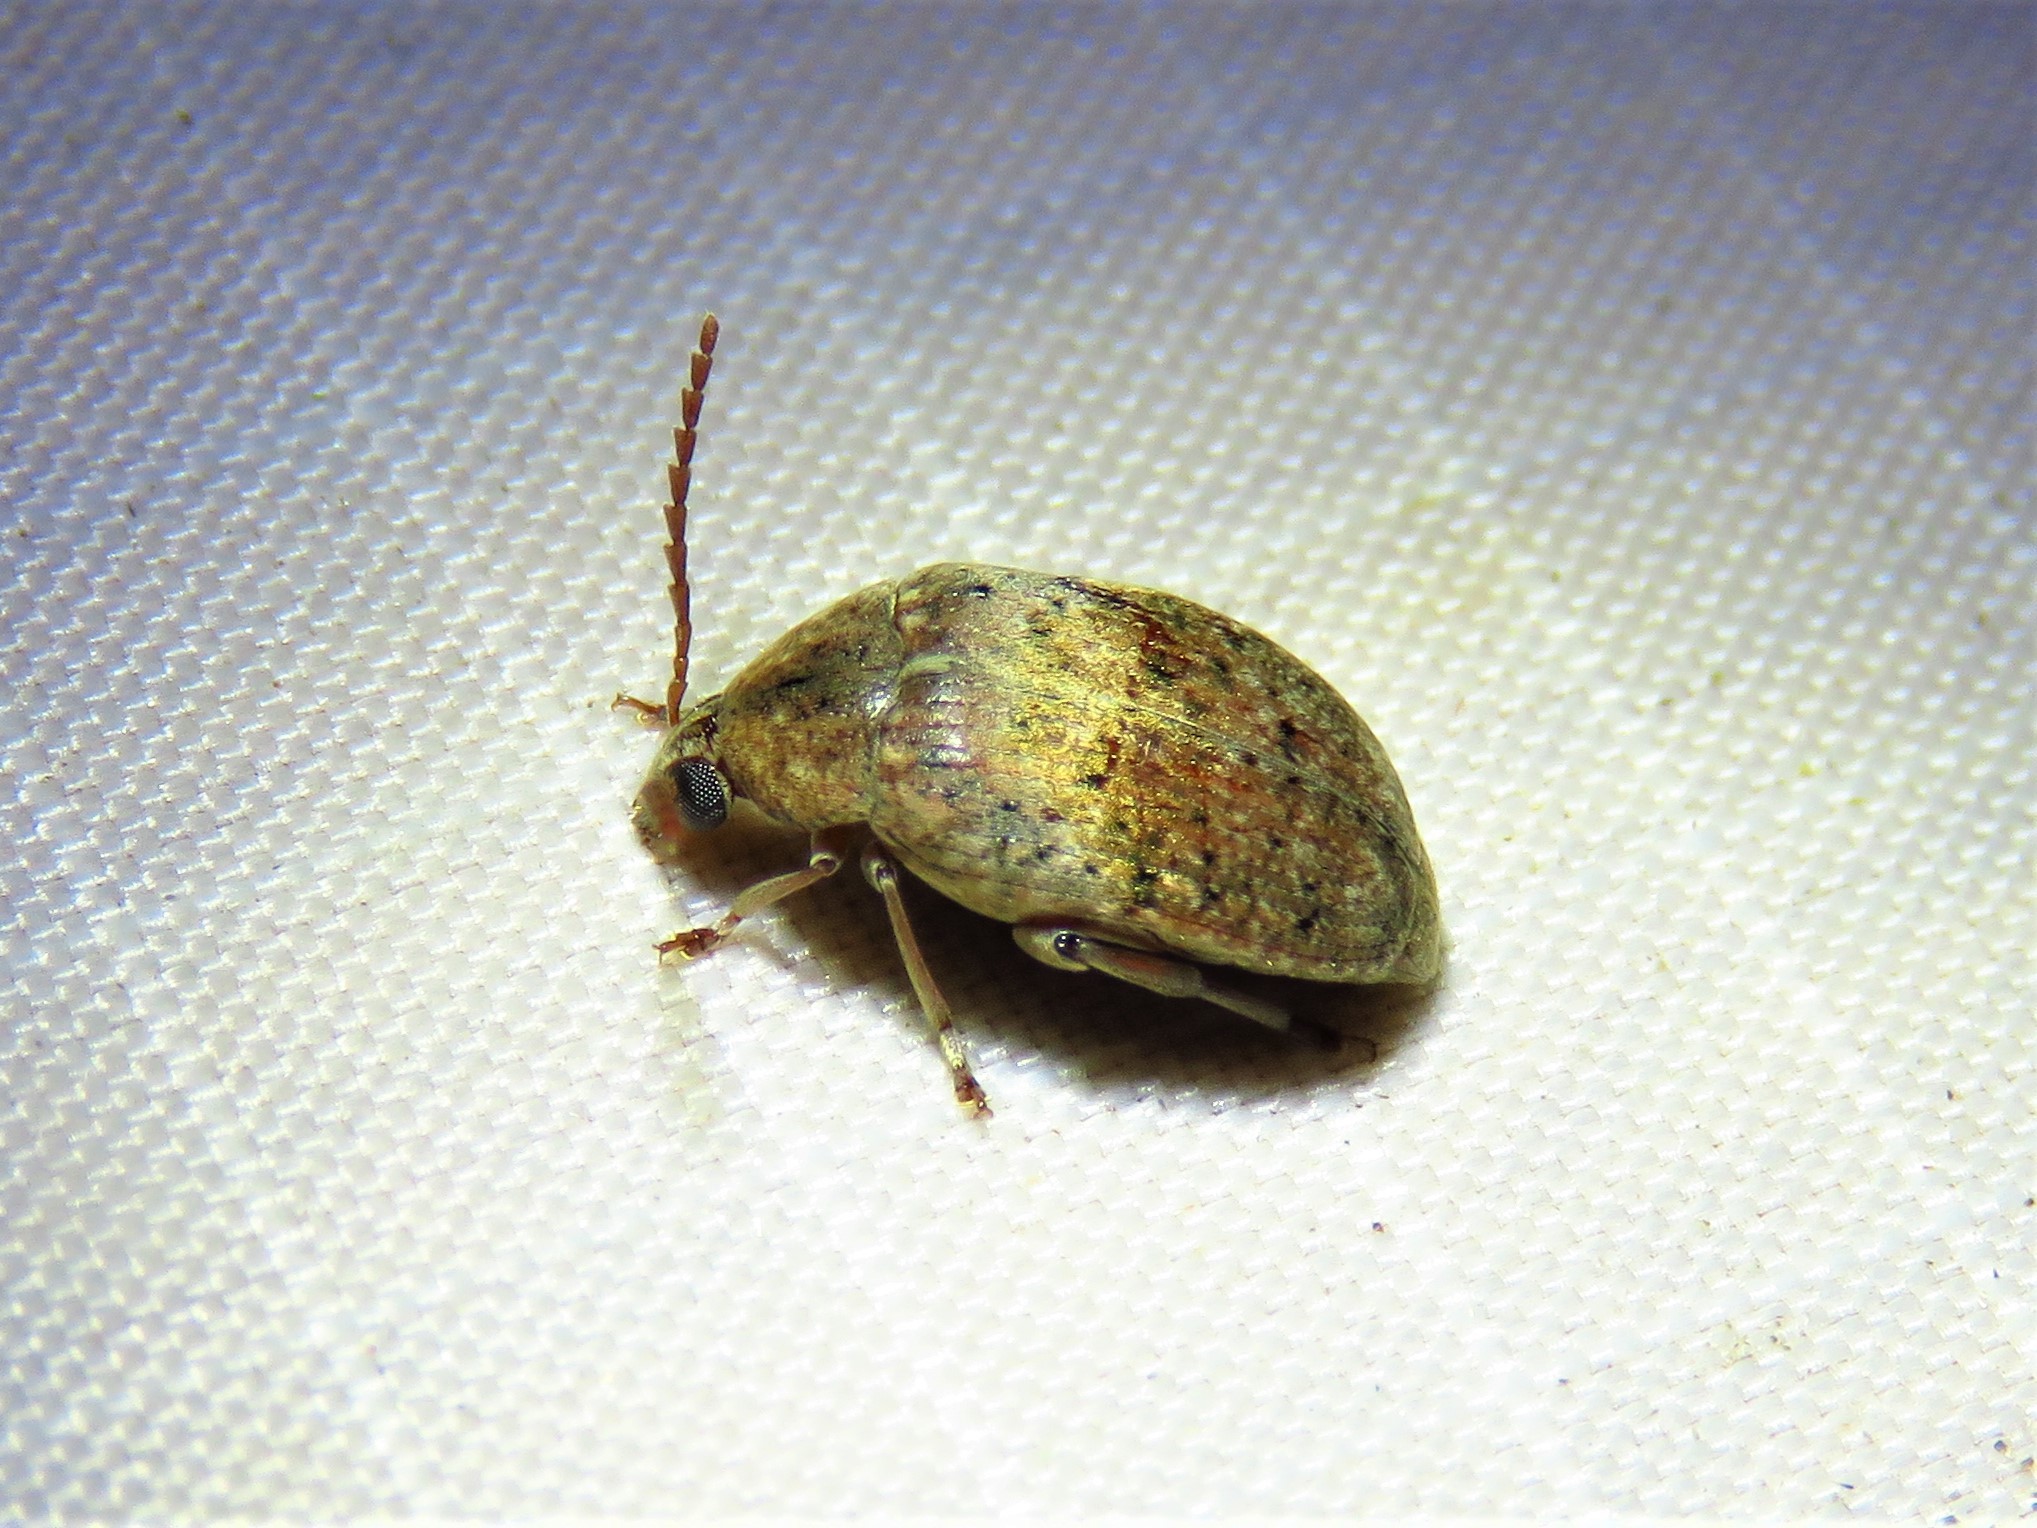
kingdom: Animalia
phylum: Arthropoda
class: Insecta
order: Coleoptera
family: Chrysomelidae
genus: Amblycerus
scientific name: Amblycerus robiniae
